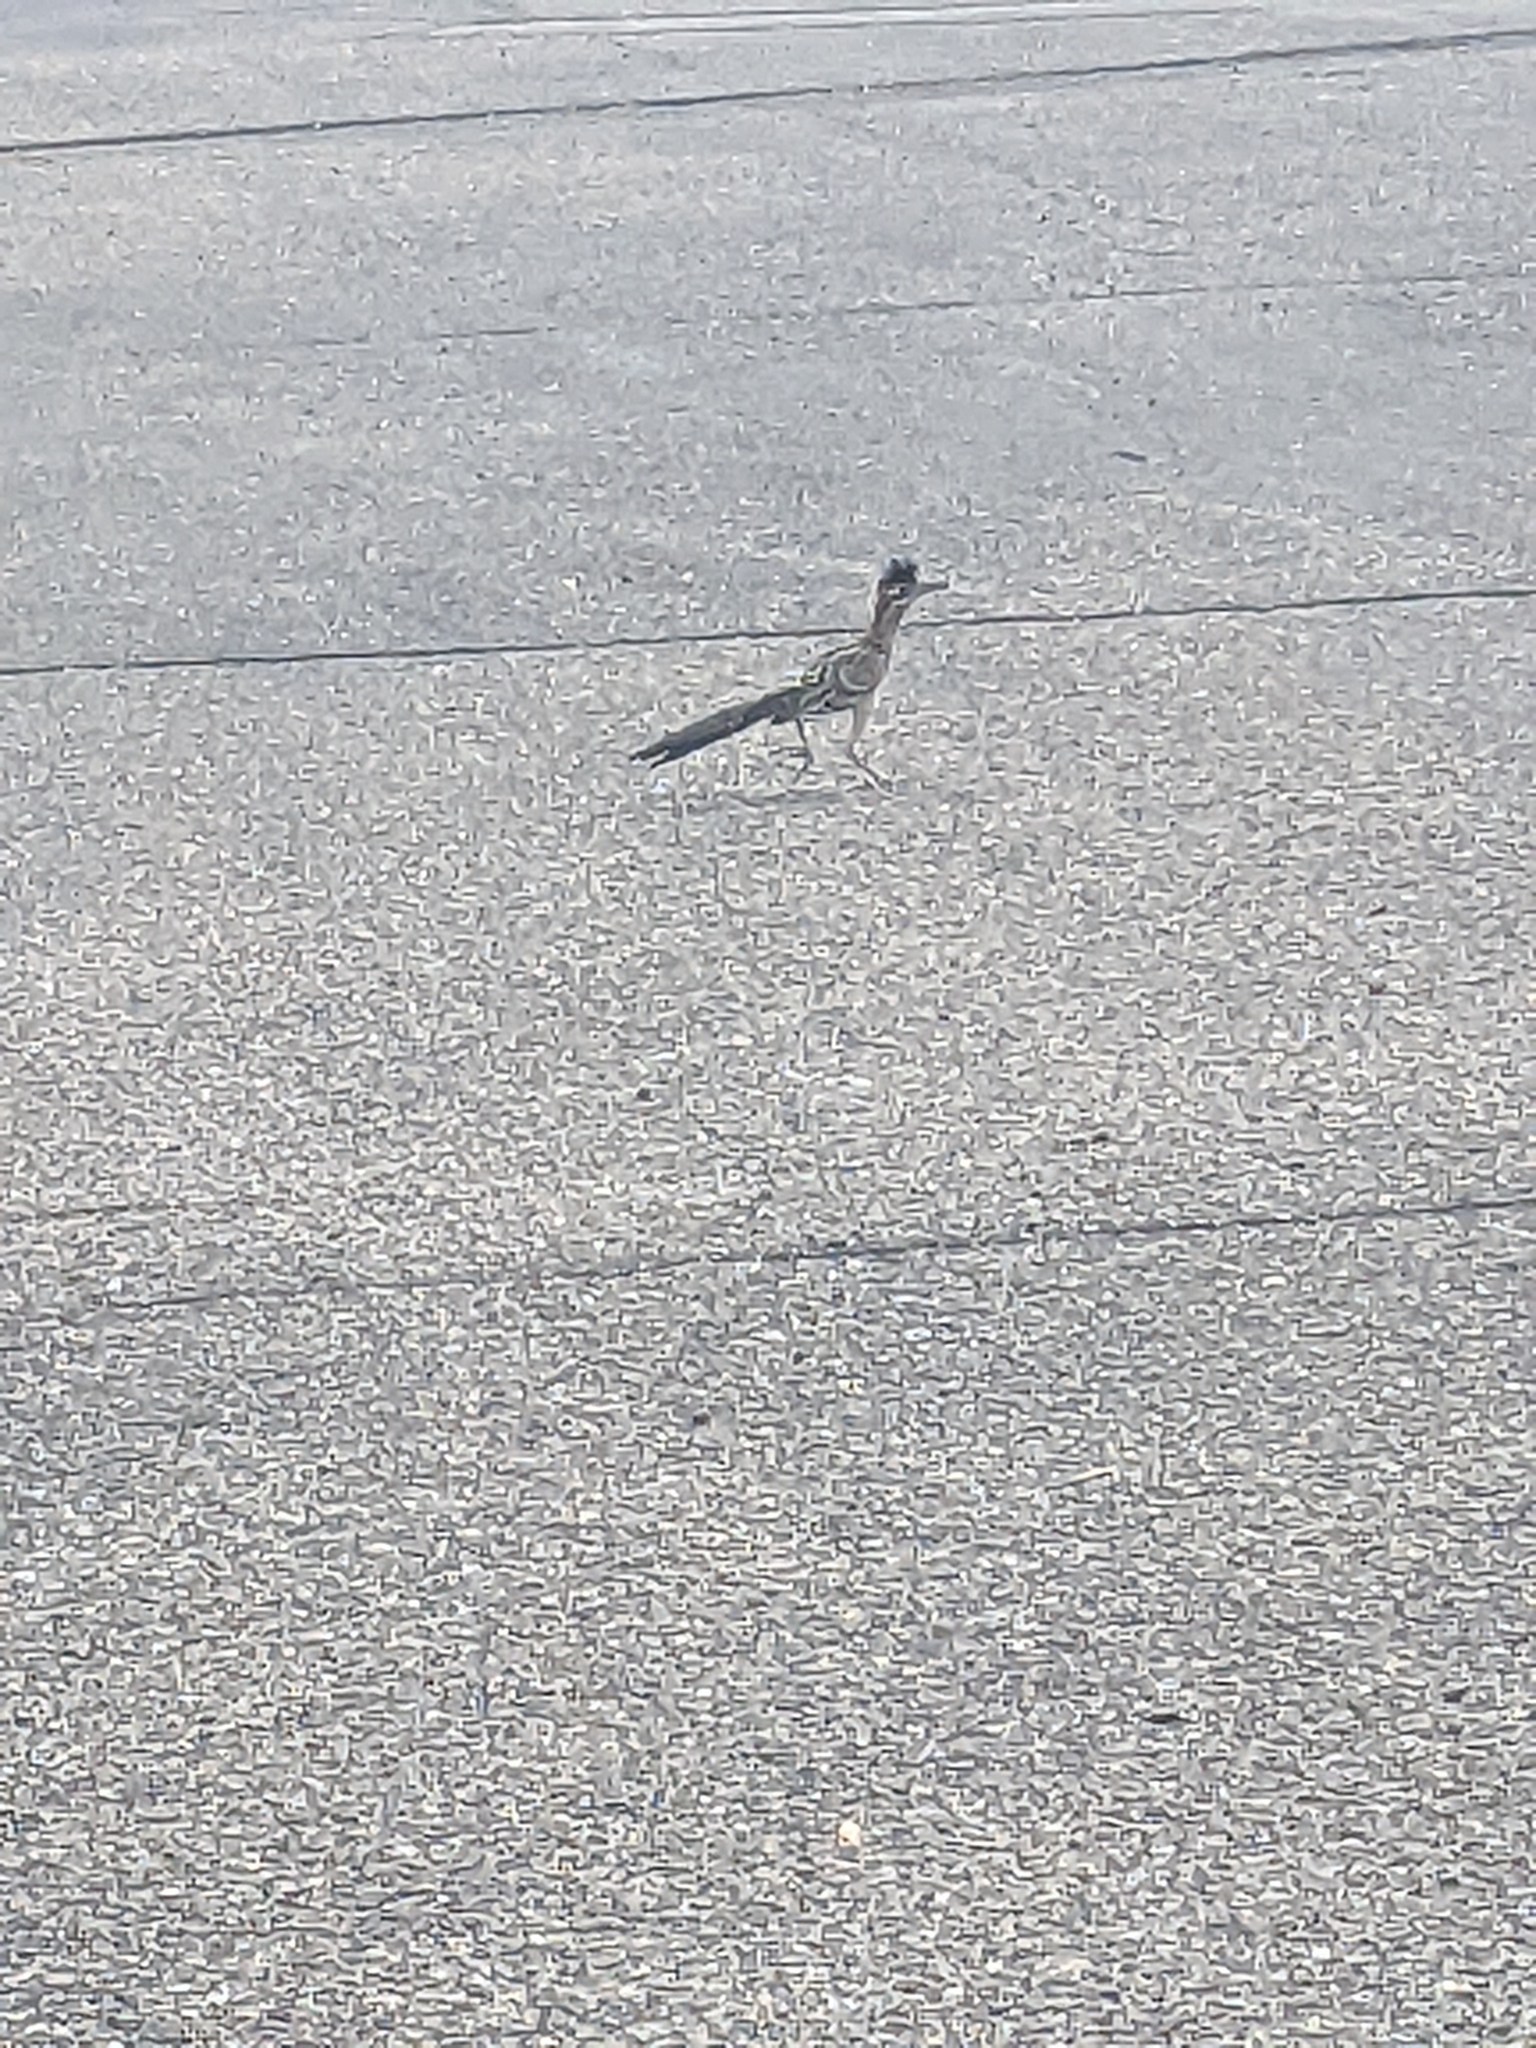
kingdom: Animalia
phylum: Chordata
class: Aves
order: Cuculiformes
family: Cuculidae
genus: Geococcyx
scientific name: Geococcyx californianus
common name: Greater roadrunner
